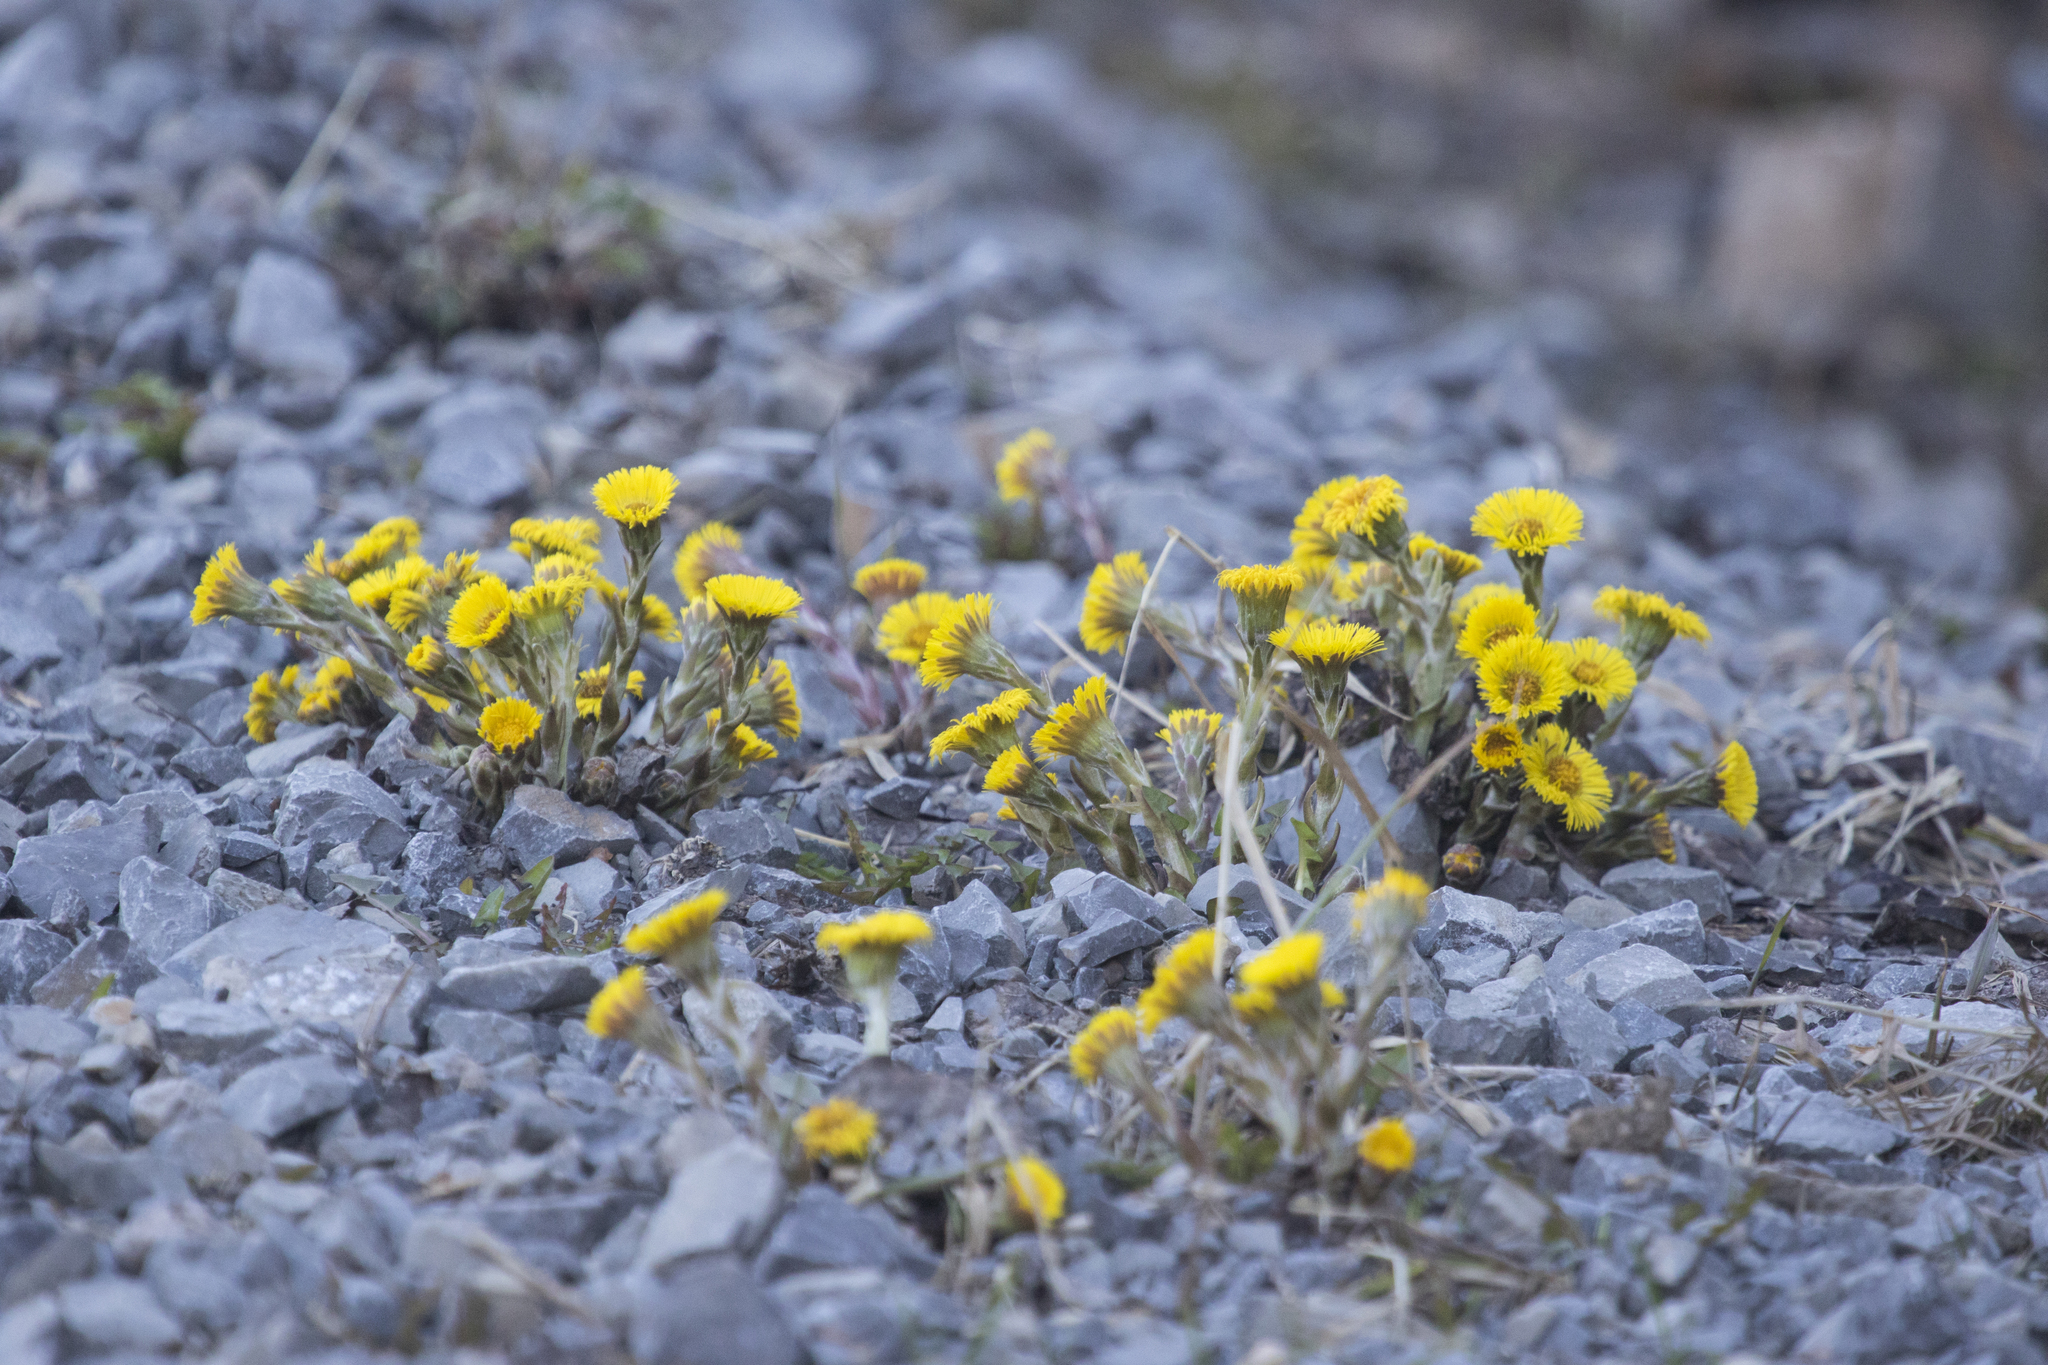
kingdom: Plantae
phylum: Tracheophyta
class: Magnoliopsida
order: Asterales
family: Asteraceae
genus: Tussilago
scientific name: Tussilago farfara
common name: Coltsfoot
